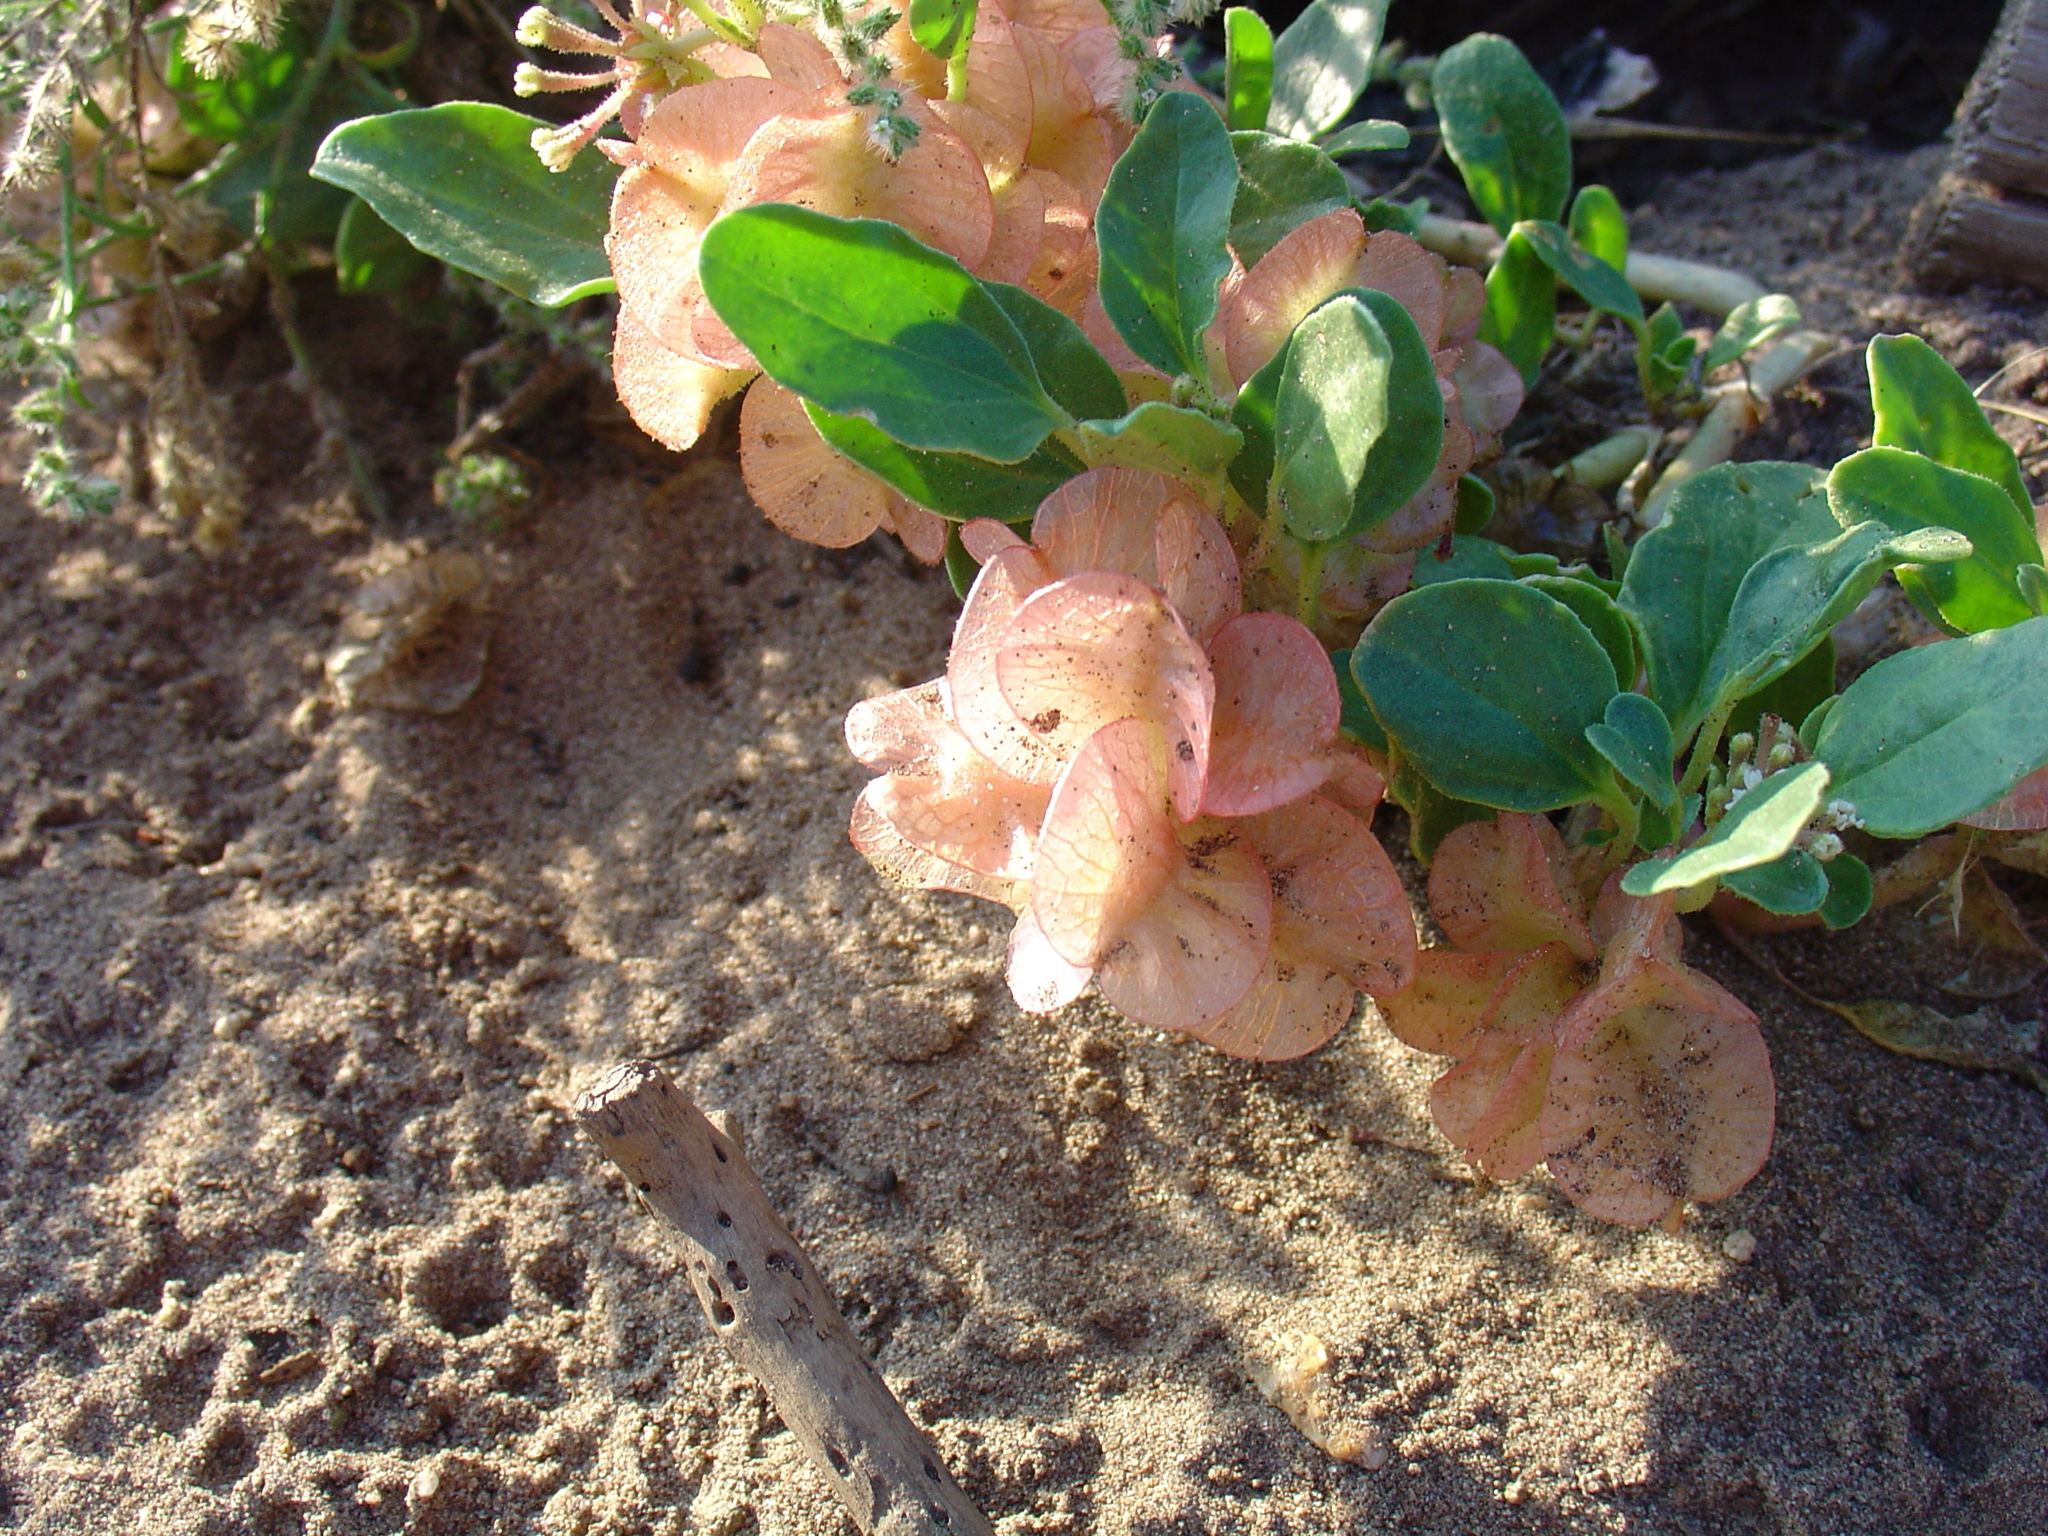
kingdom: Plantae
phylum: Tracheophyta
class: Magnoliopsida
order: Caryophyllales
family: Nyctaginaceae
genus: Tripterocalyx
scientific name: Tripterocalyx micranthus
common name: Small-flowered sand-verbena
